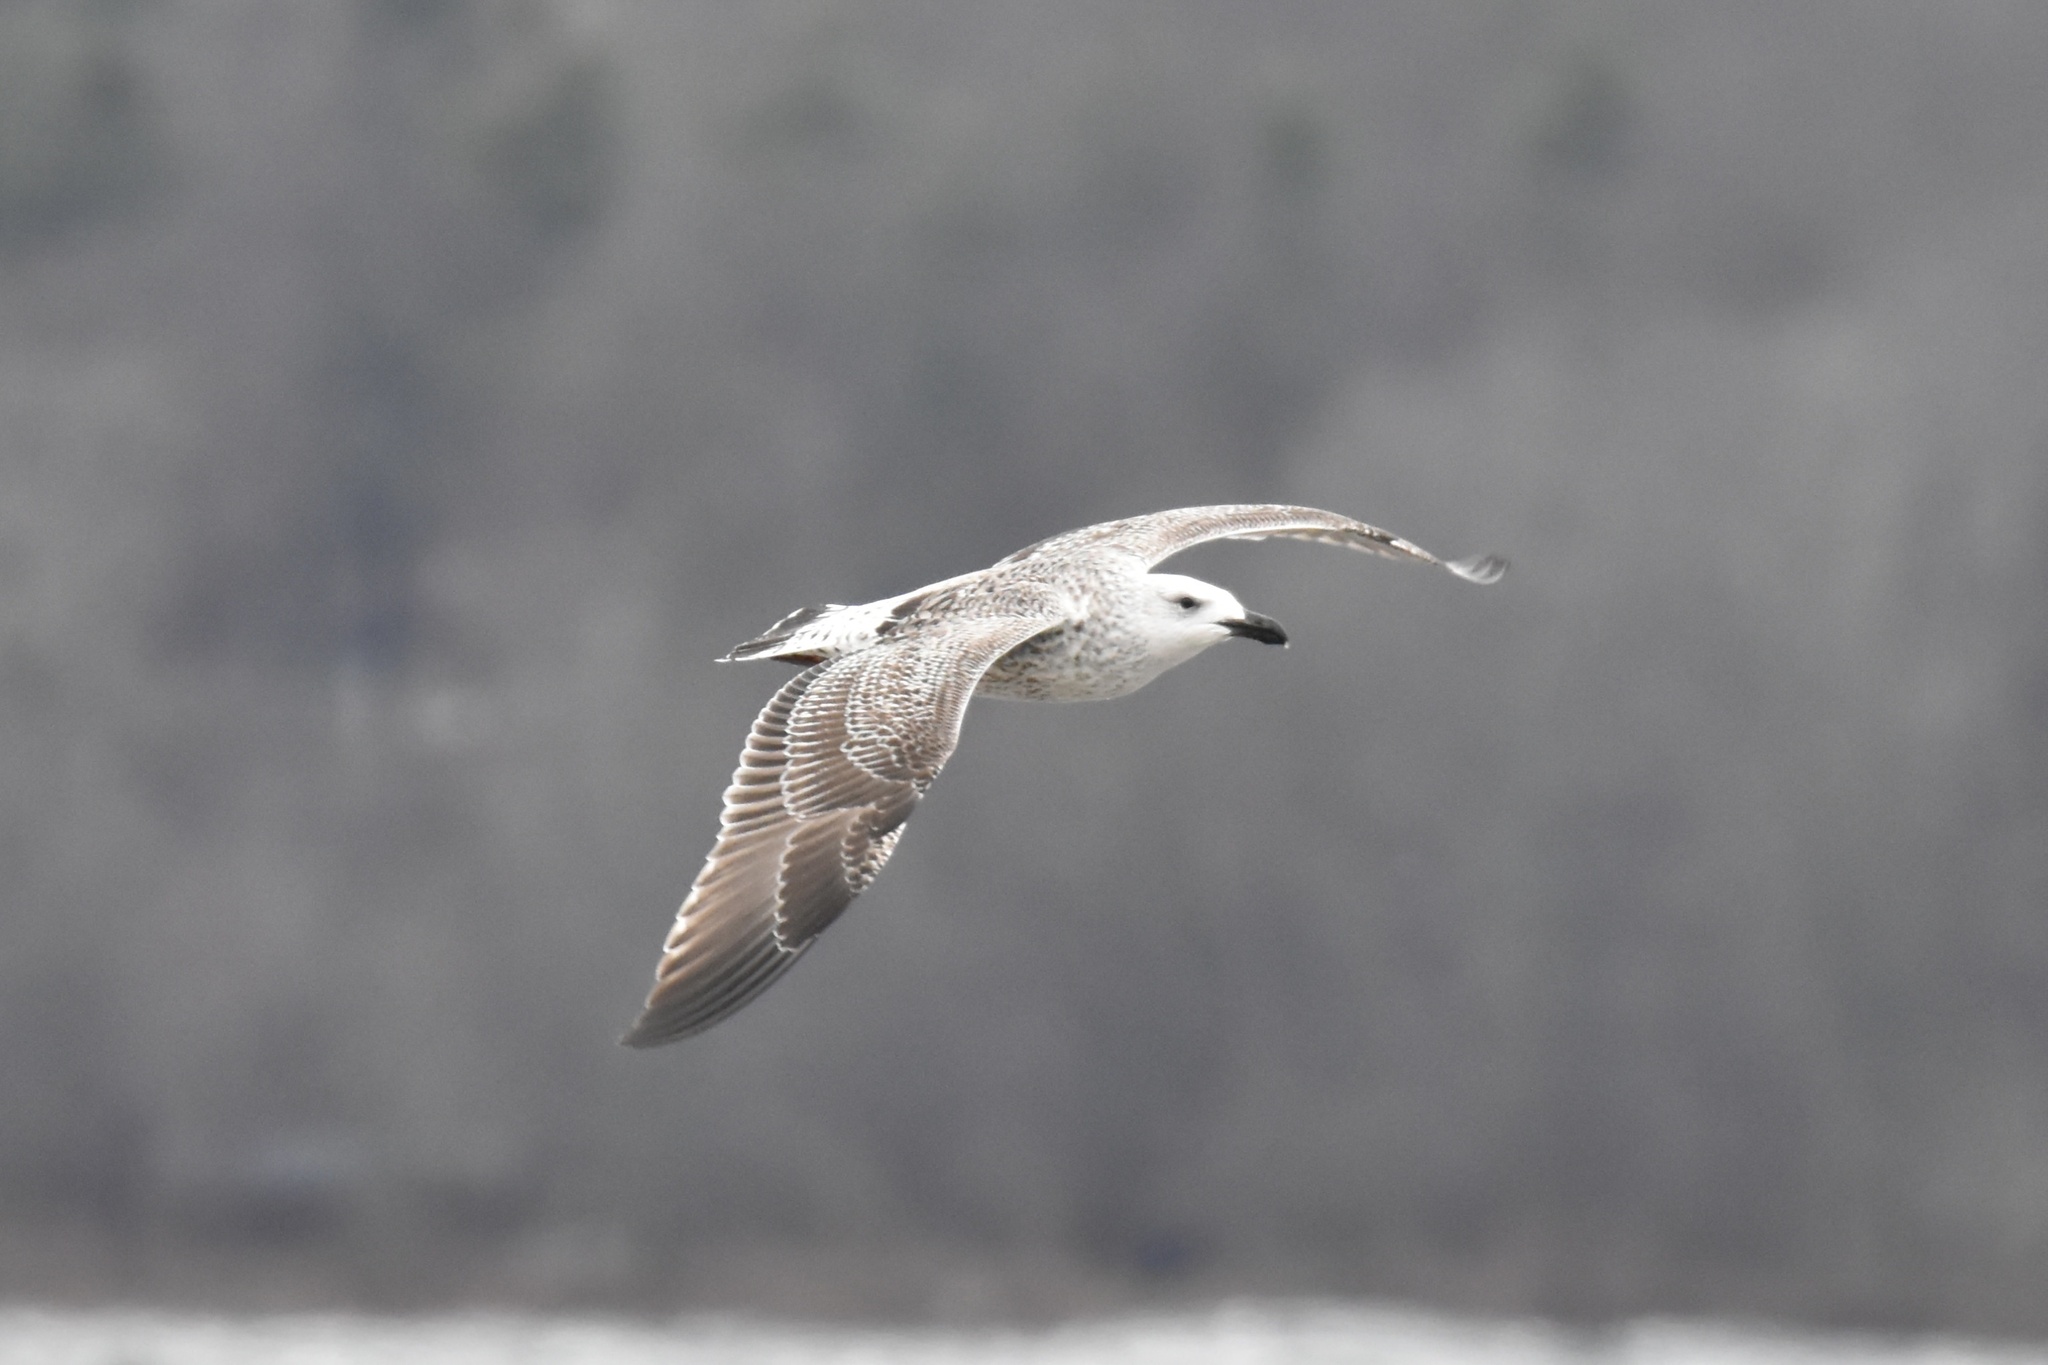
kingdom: Animalia
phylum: Chordata
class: Aves
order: Charadriiformes
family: Laridae
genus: Larus
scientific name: Larus marinus
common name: Great black-backed gull
